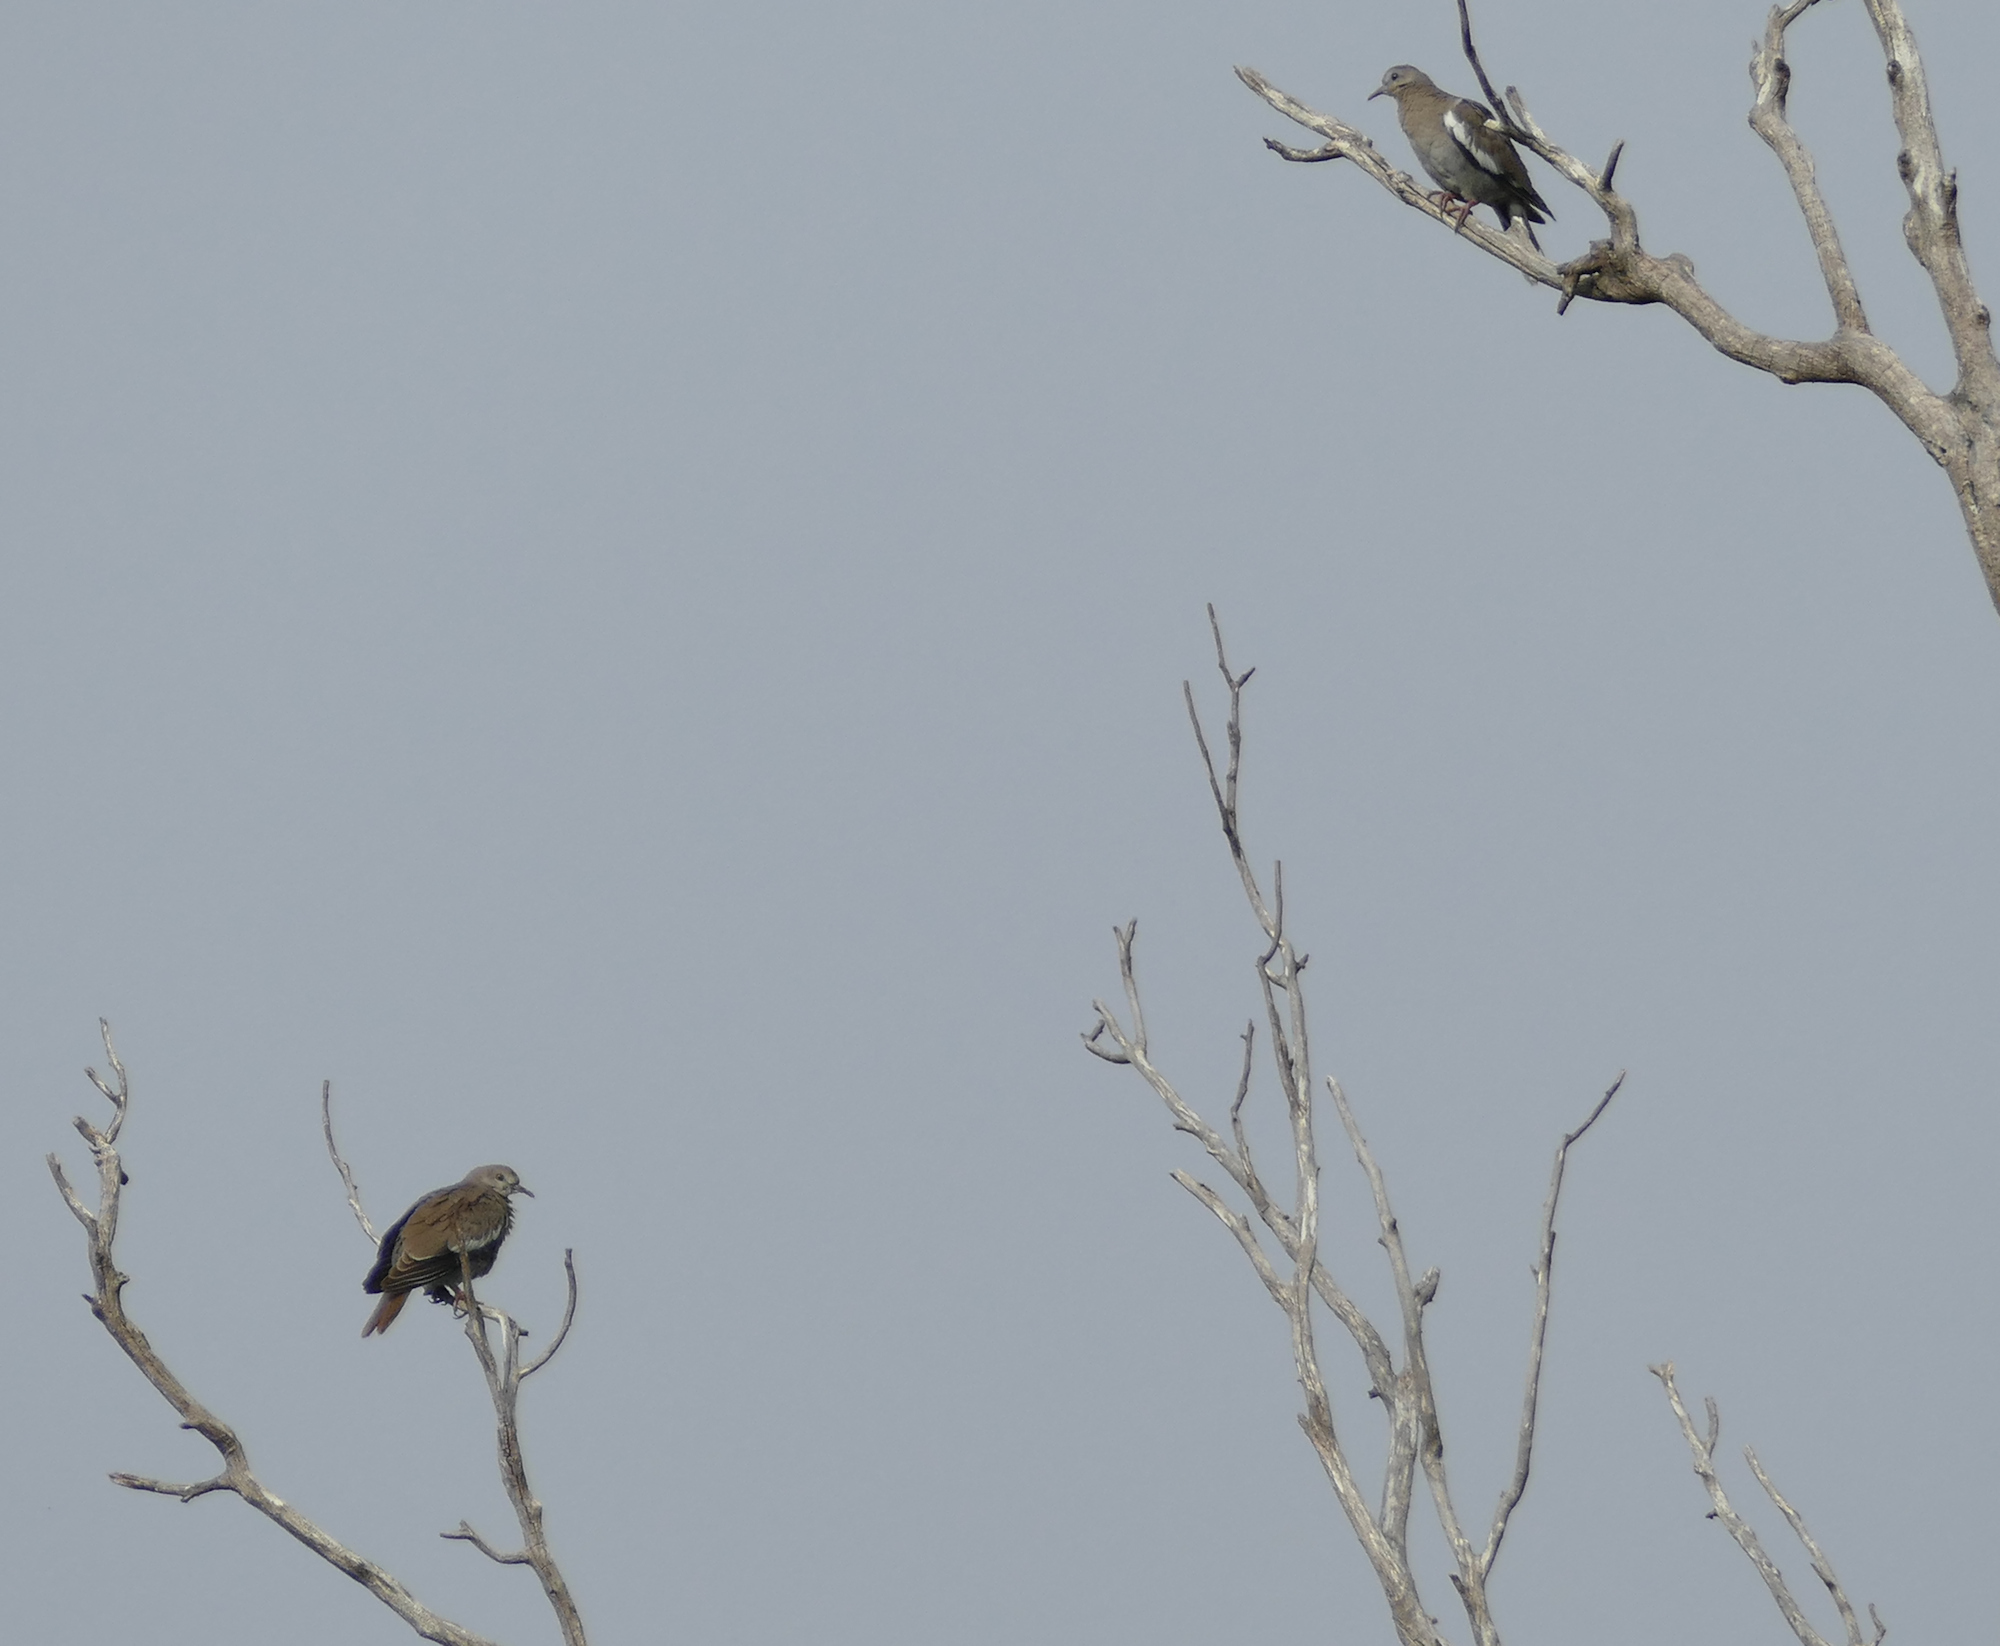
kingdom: Animalia
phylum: Chordata
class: Aves
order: Columbiformes
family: Columbidae
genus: Zenaida
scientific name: Zenaida asiatica
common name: White-winged dove
